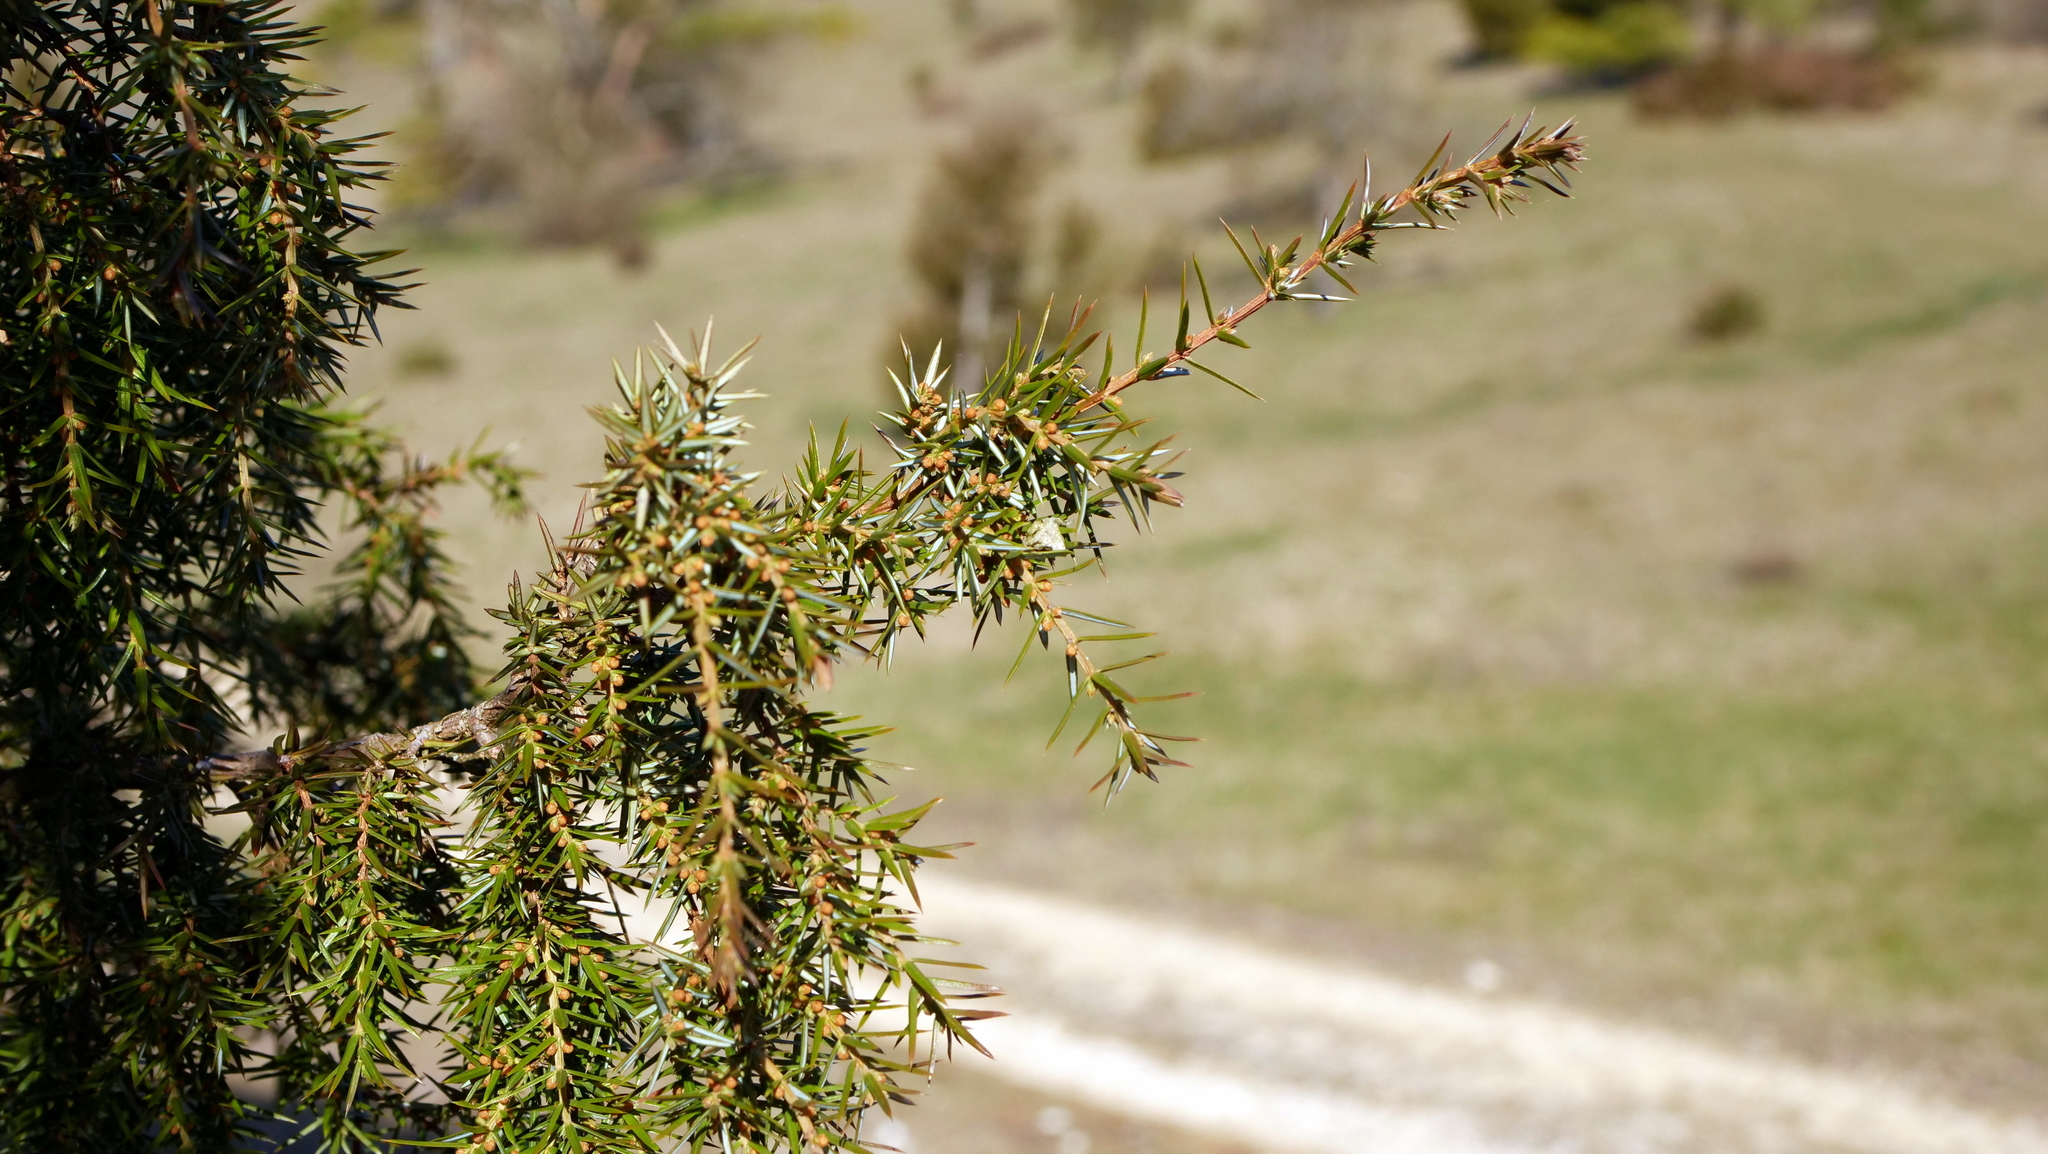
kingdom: Plantae
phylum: Tracheophyta
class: Pinopsida
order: Pinales
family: Cupressaceae
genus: Juniperus
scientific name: Juniperus communis
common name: Common juniper
